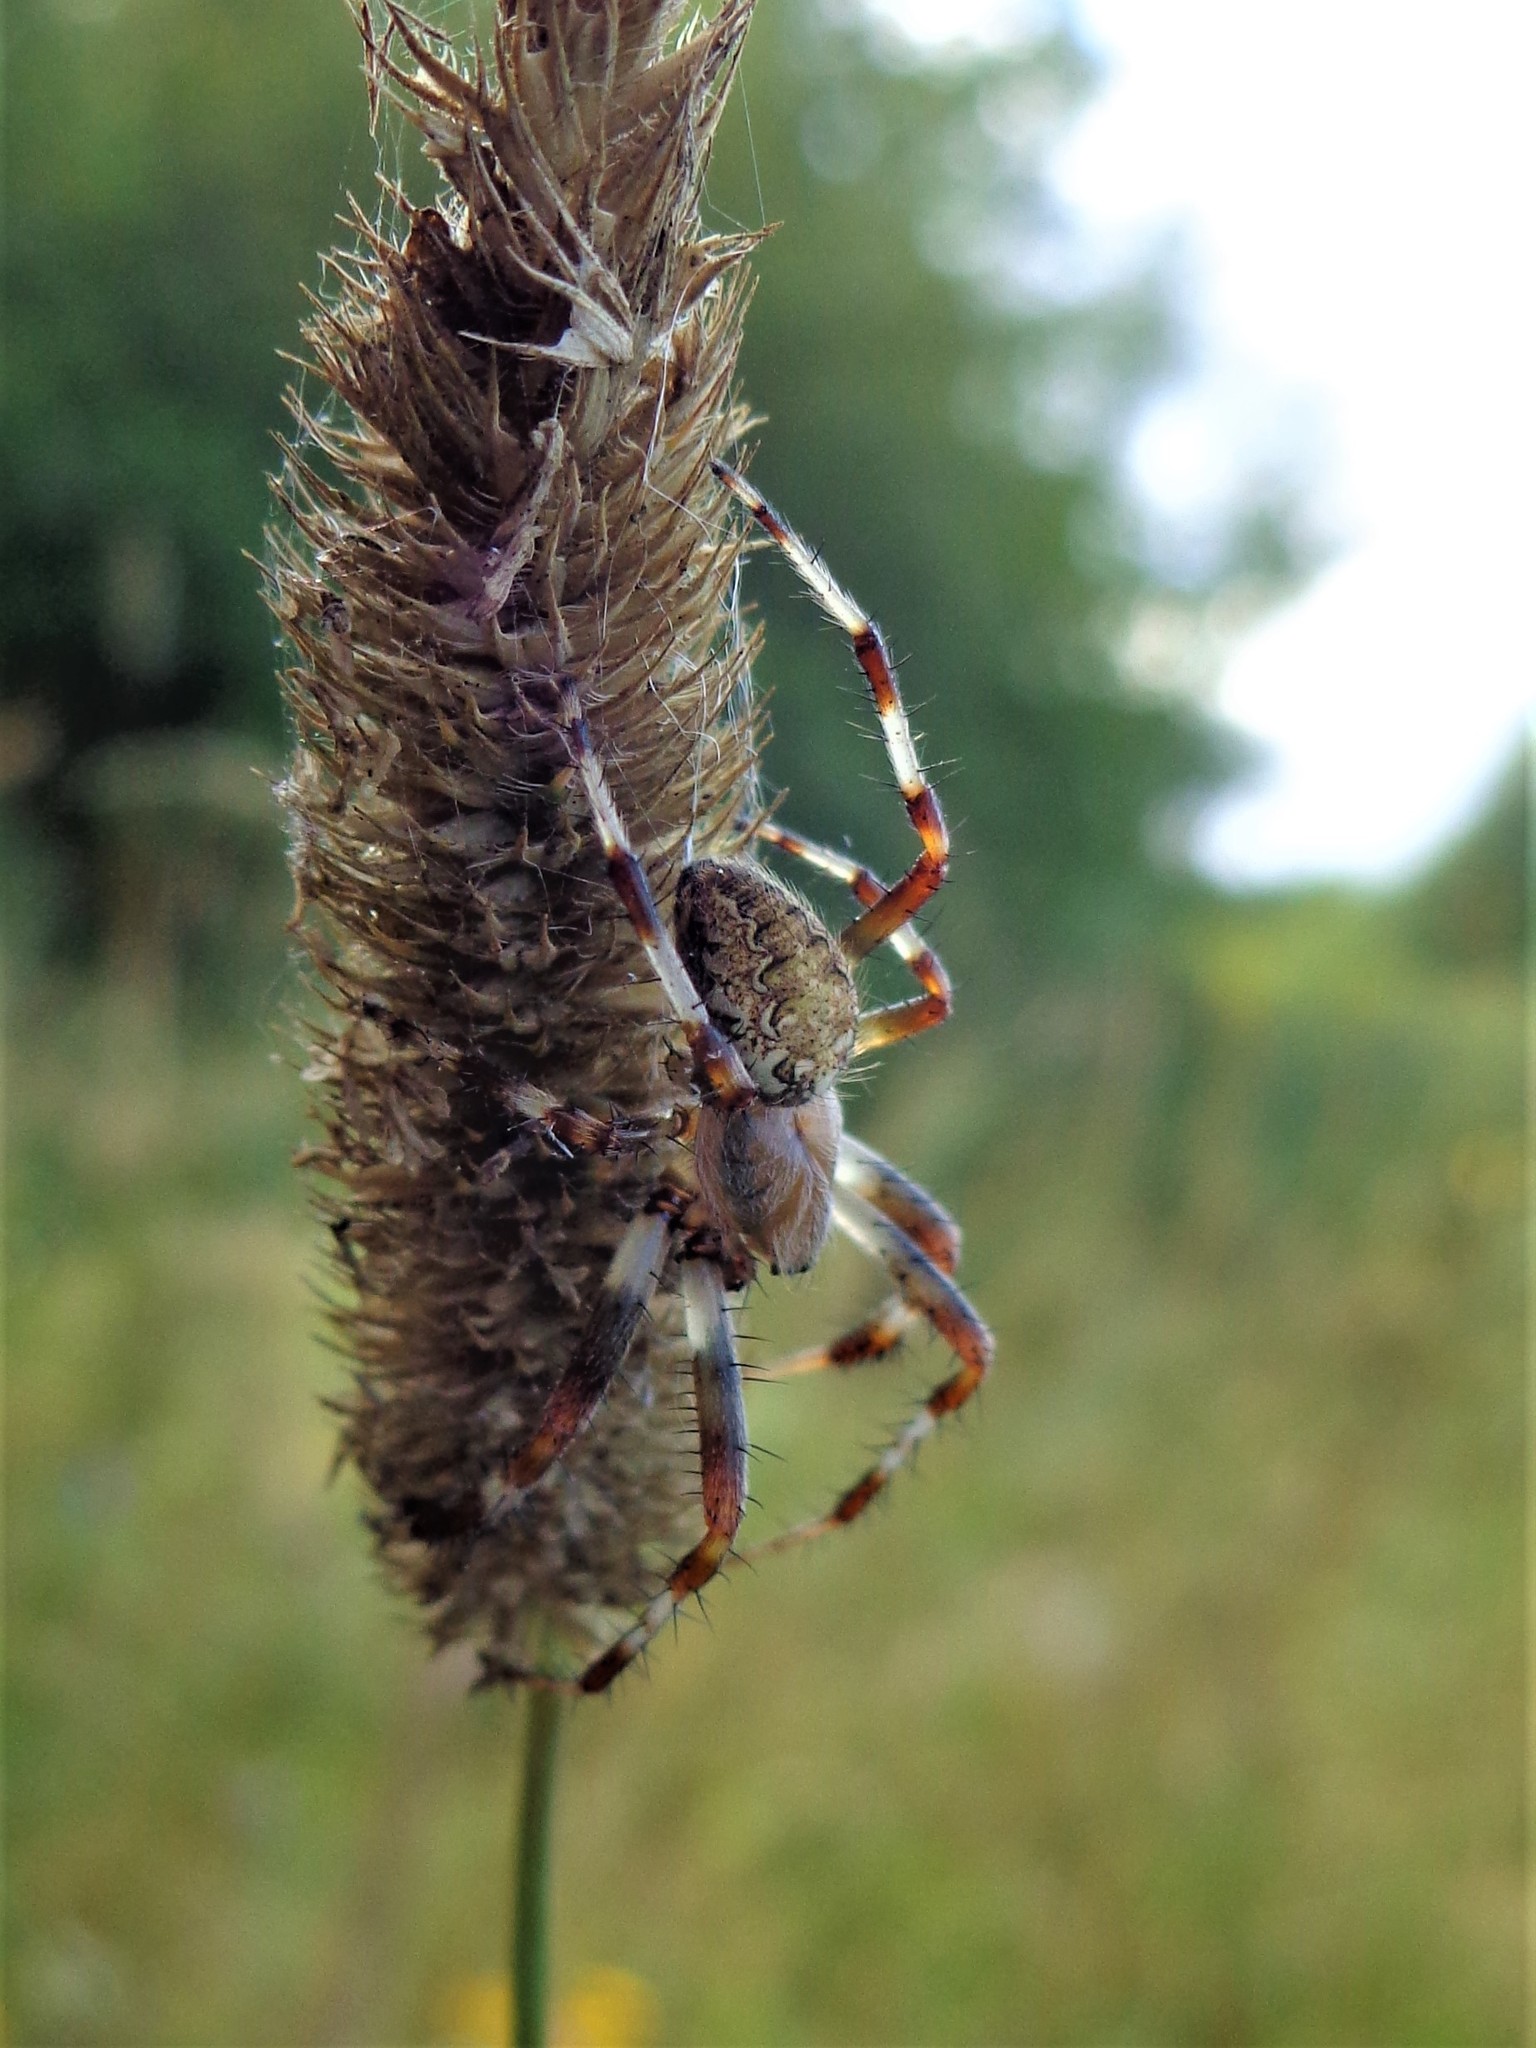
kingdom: Animalia
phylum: Arthropoda
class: Arachnida
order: Araneae
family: Araneidae
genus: Araneus
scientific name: Araneus marmoreus
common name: Marbled orbweaver
